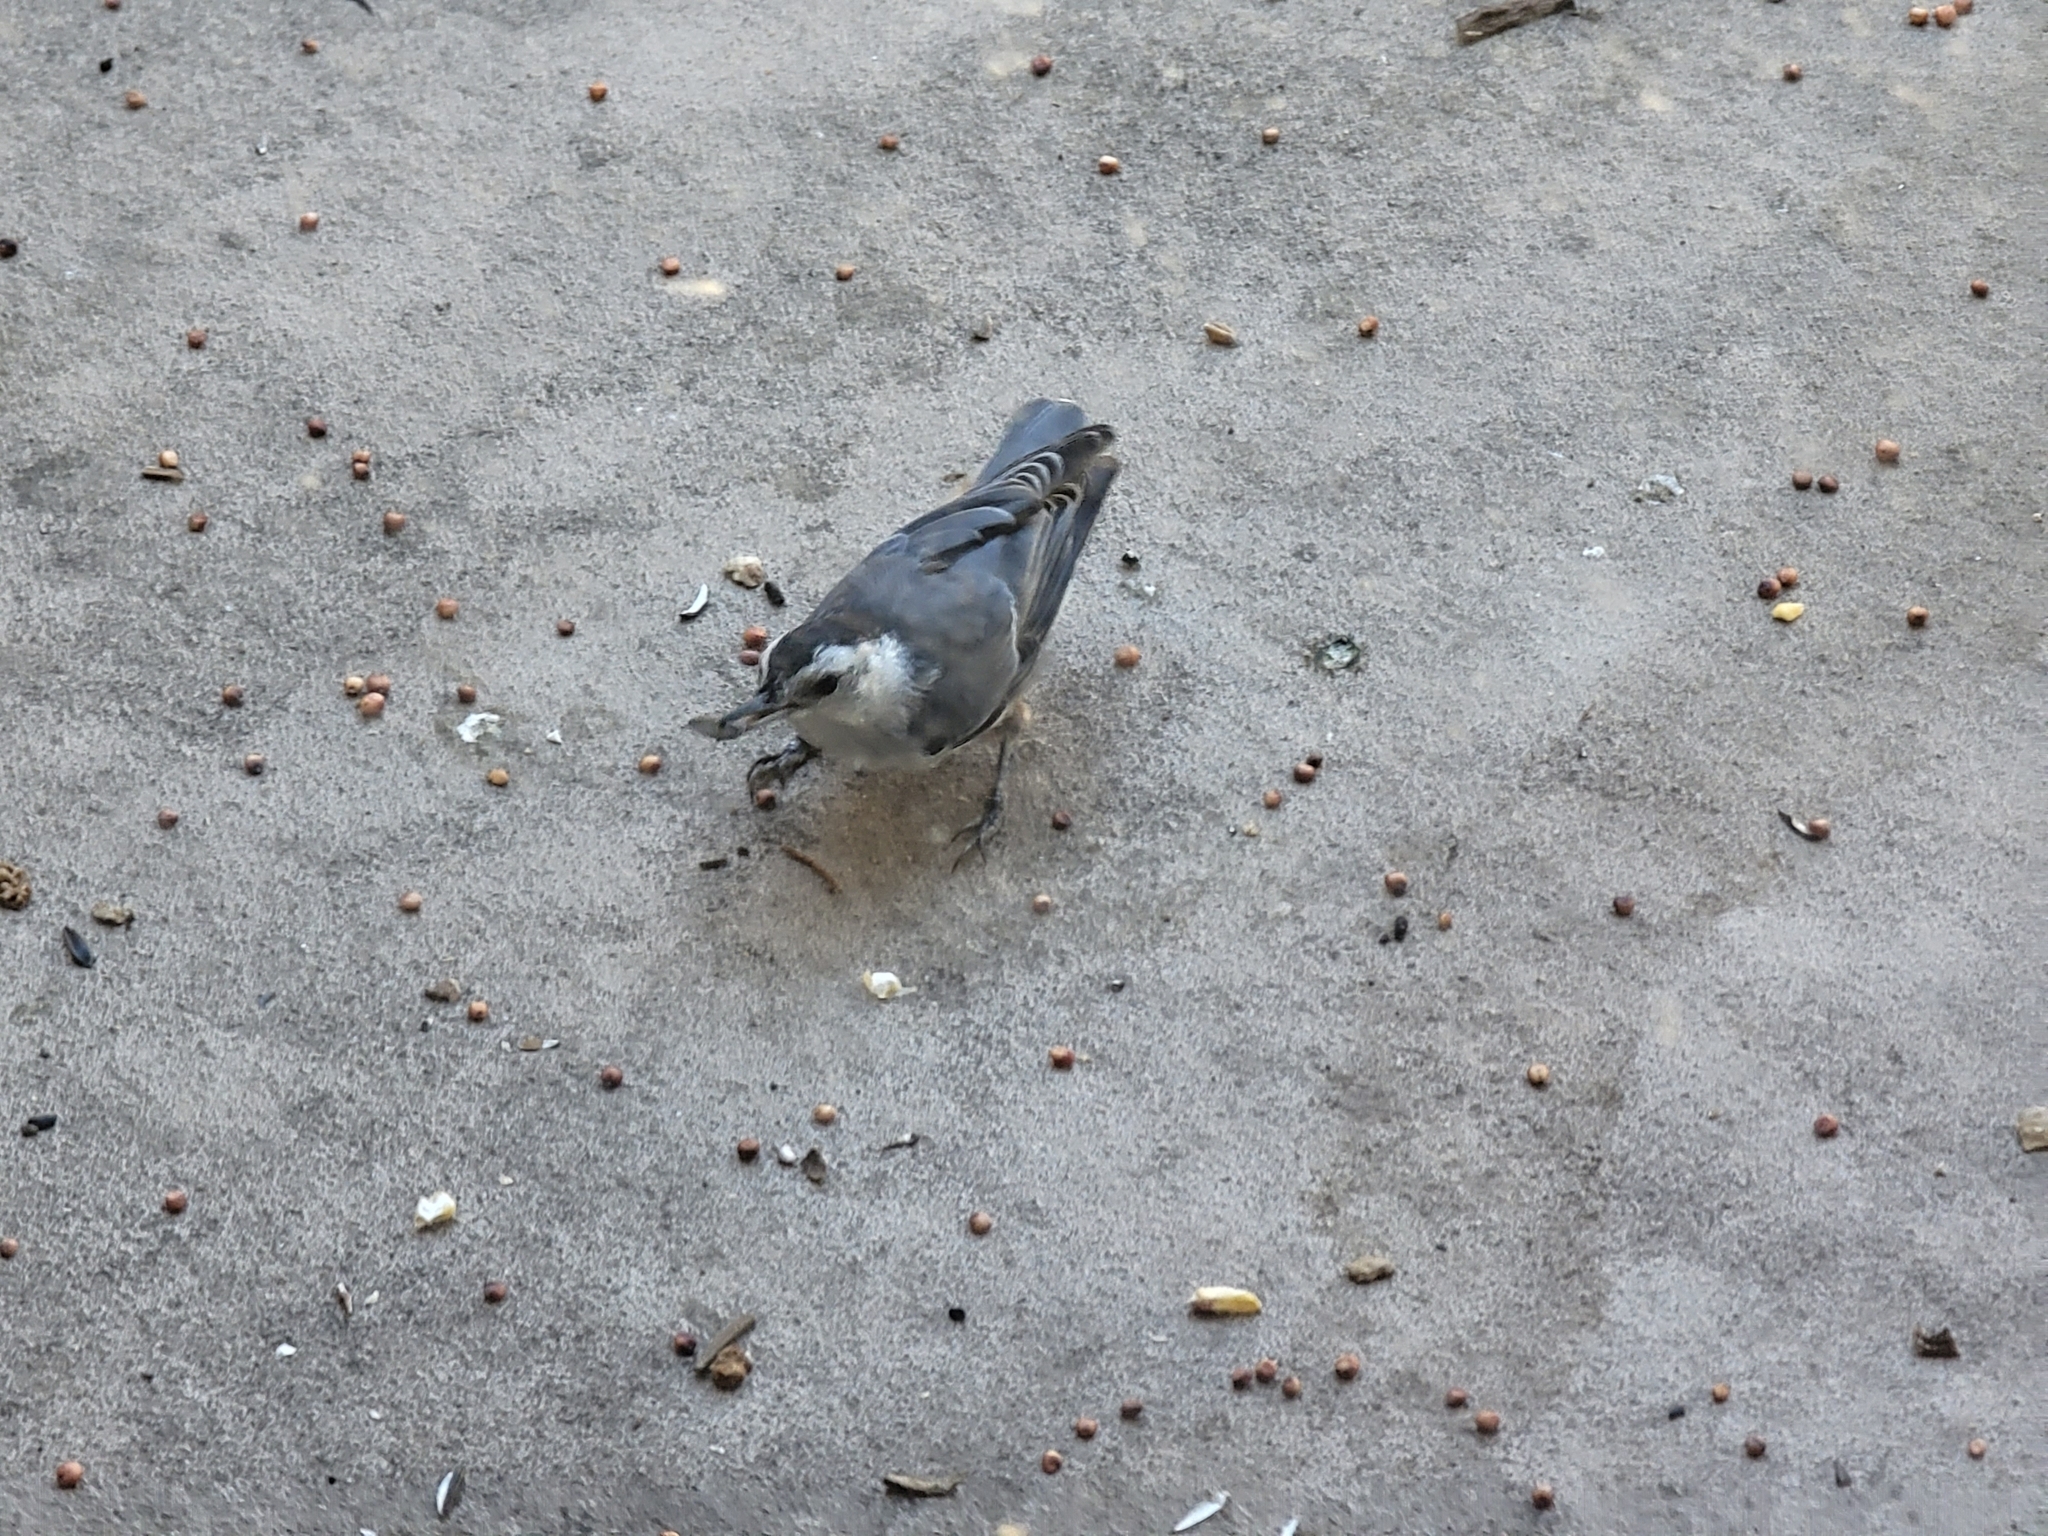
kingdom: Animalia
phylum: Chordata
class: Aves
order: Passeriformes
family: Sittidae
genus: Sitta
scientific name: Sitta carolinensis
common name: White-breasted nuthatch
